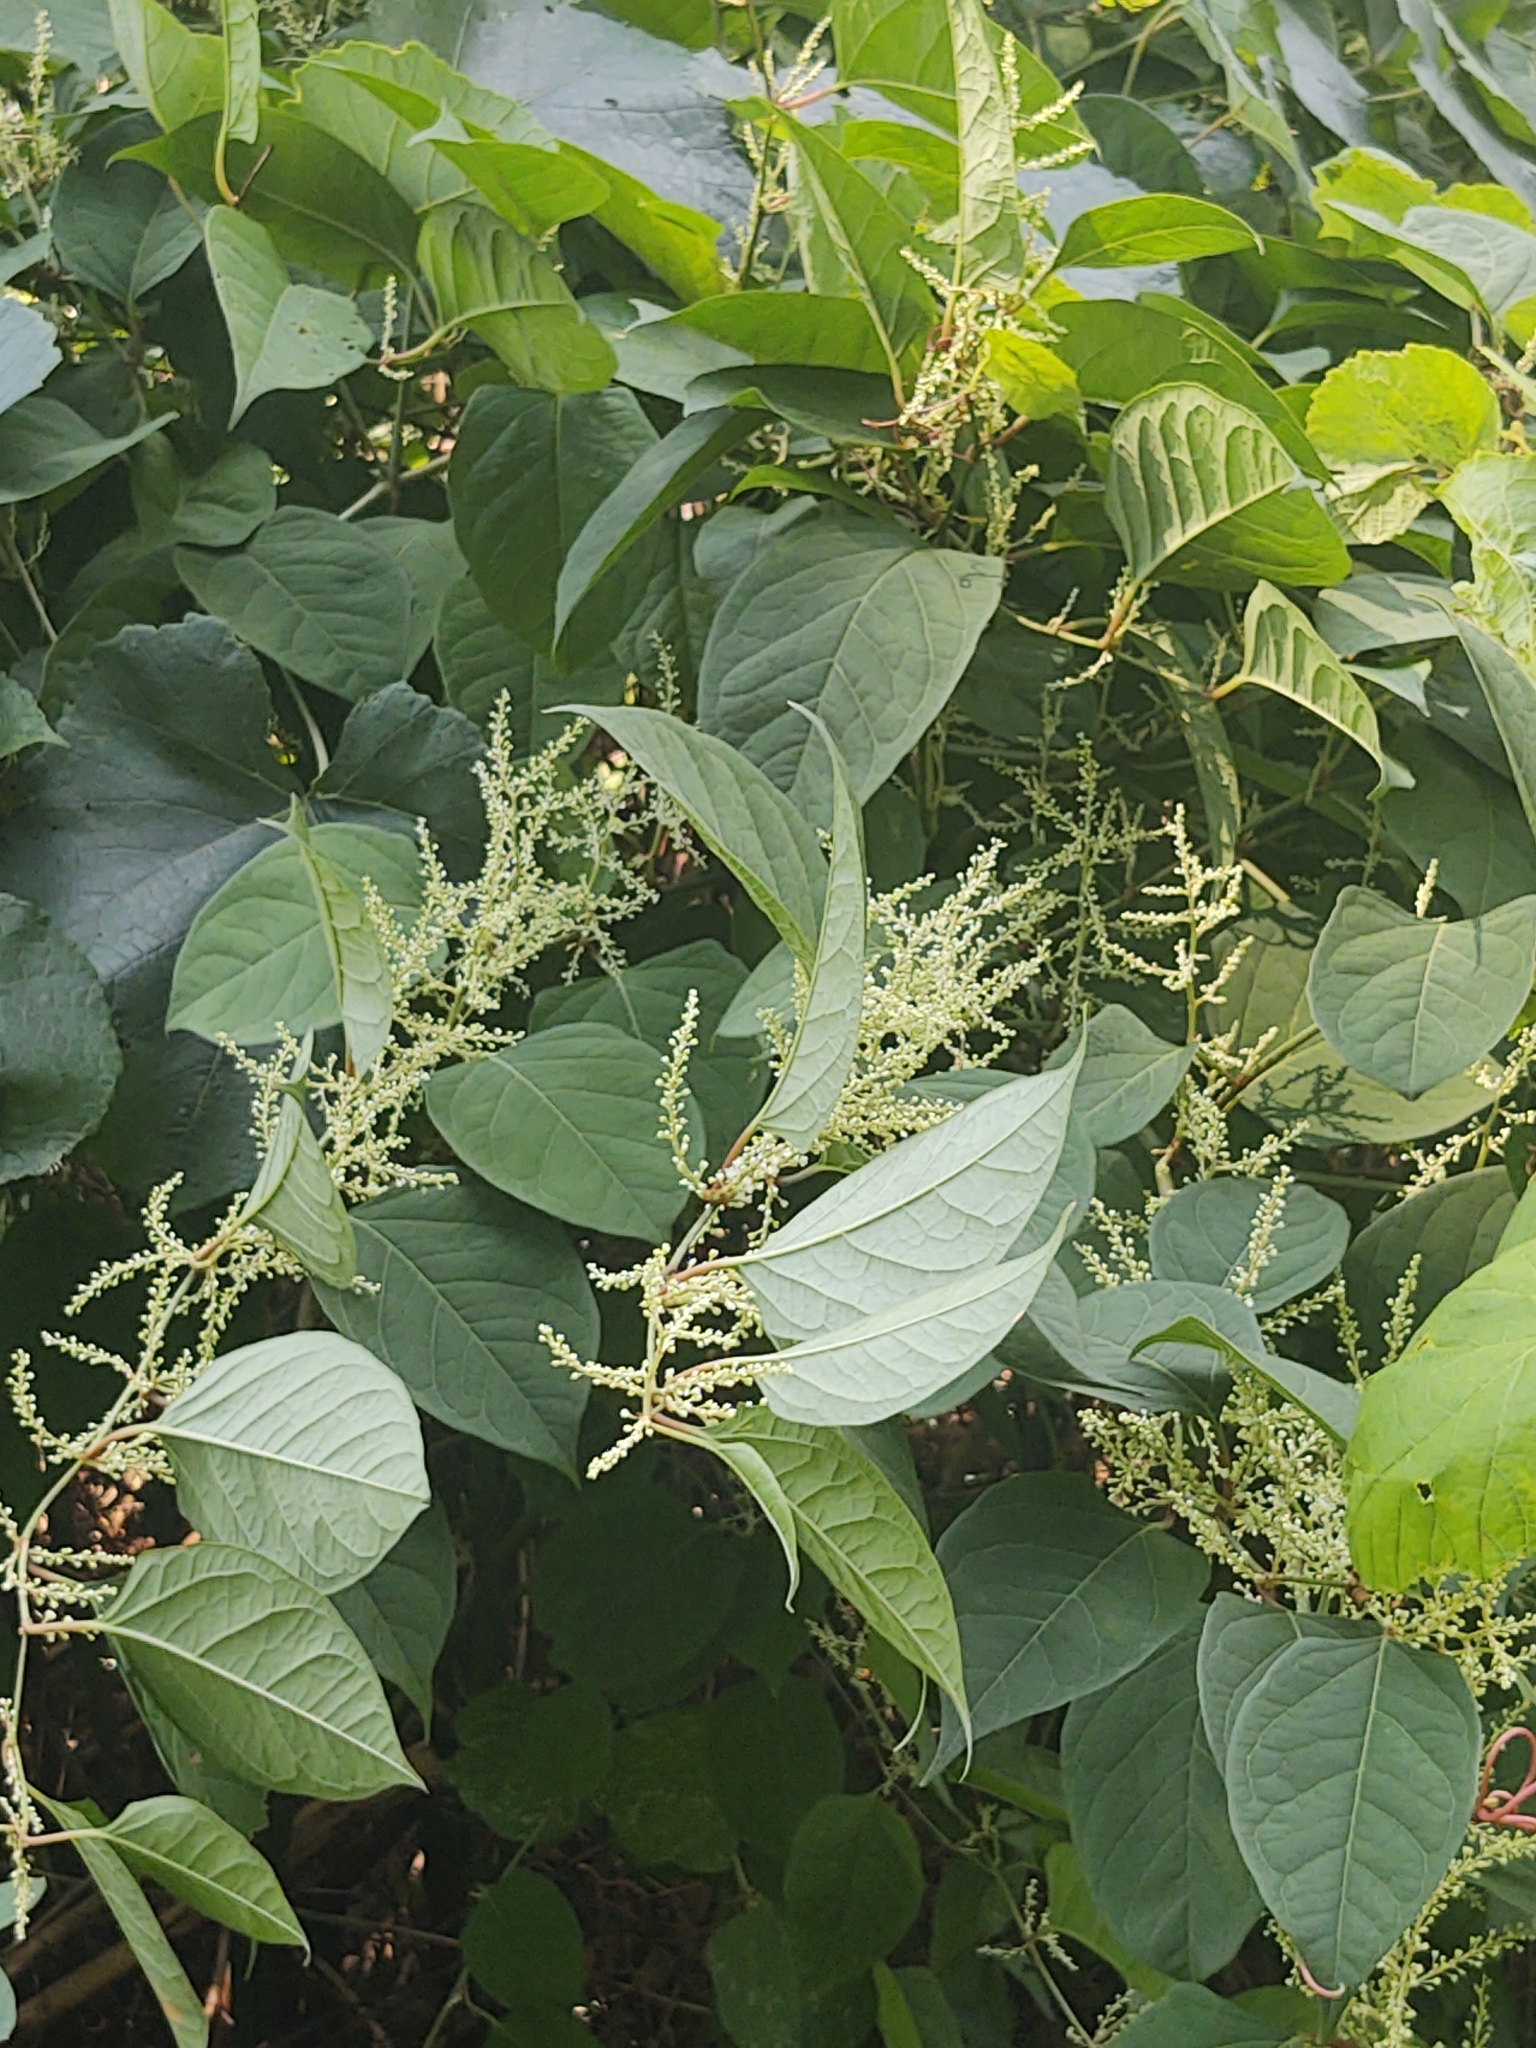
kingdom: Plantae
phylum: Tracheophyta
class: Magnoliopsida
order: Caryophyllales
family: Polygonaceae
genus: Reynoutria
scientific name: Reynoutria japonica
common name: Japanese knotweed
